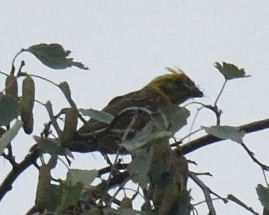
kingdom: Animalia
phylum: Chordata
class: Aves
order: Passeriformes
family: Emberizidae
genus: Emberiza
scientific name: Emberiza citrinella
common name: Yellowhammer
